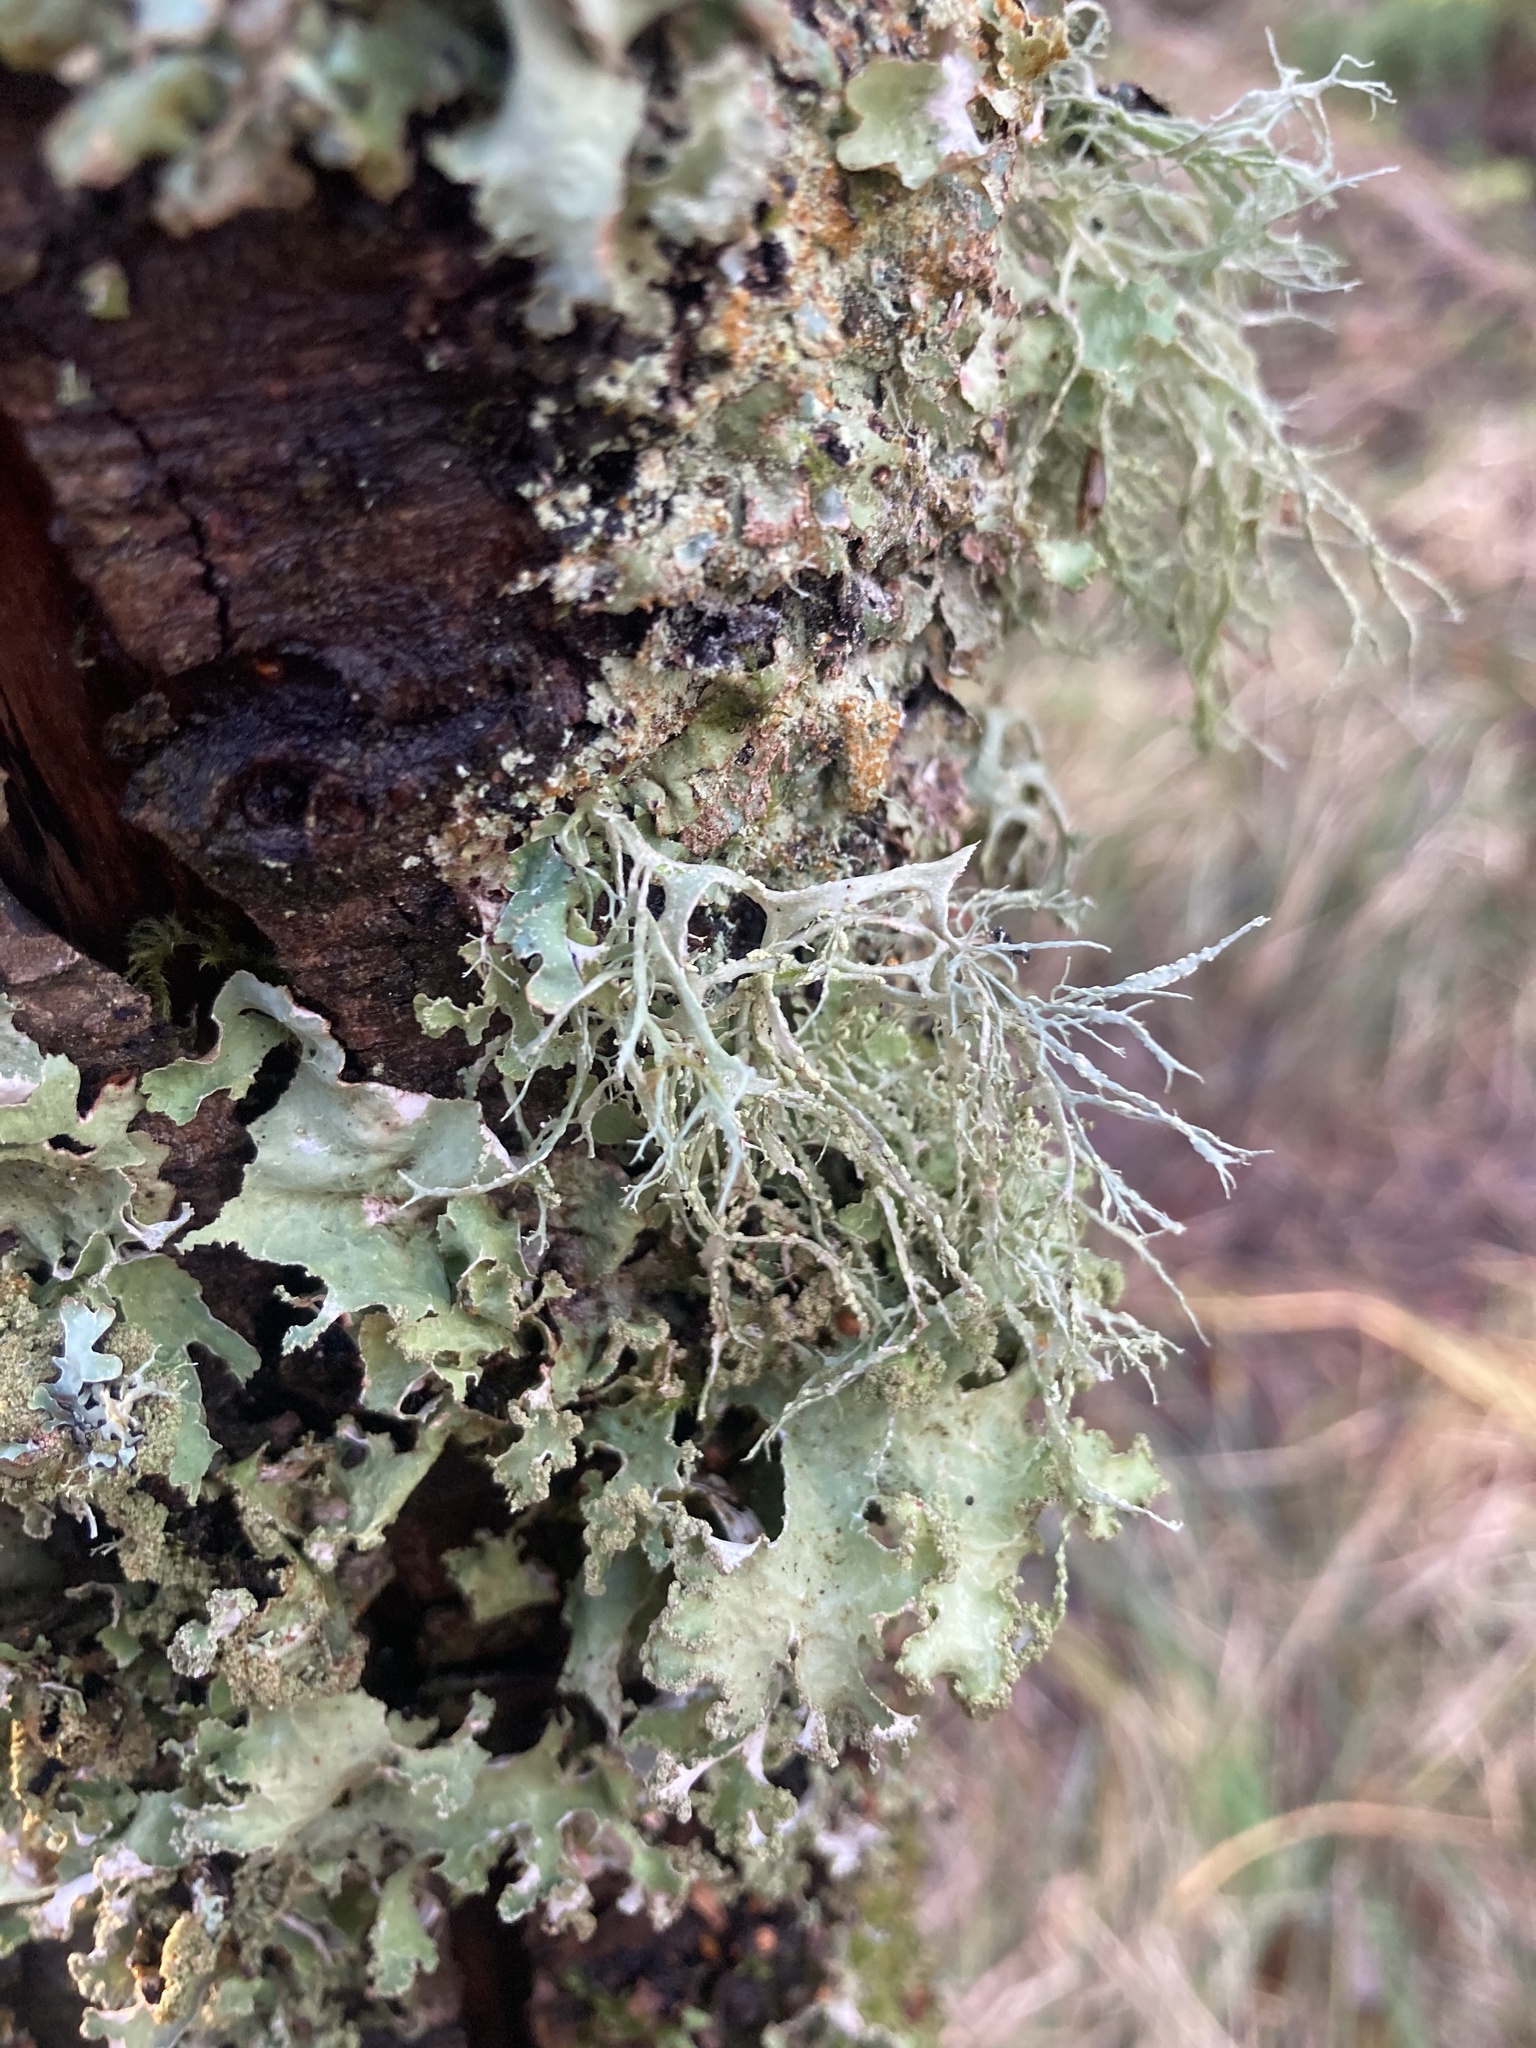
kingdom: Fungi
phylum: Ascomycota
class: Lecanoromycetes
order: Lecanorales
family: Ramalinaceae
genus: Ramalina
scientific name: Ramalina farinacea
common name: Farinose cartilage lichen
